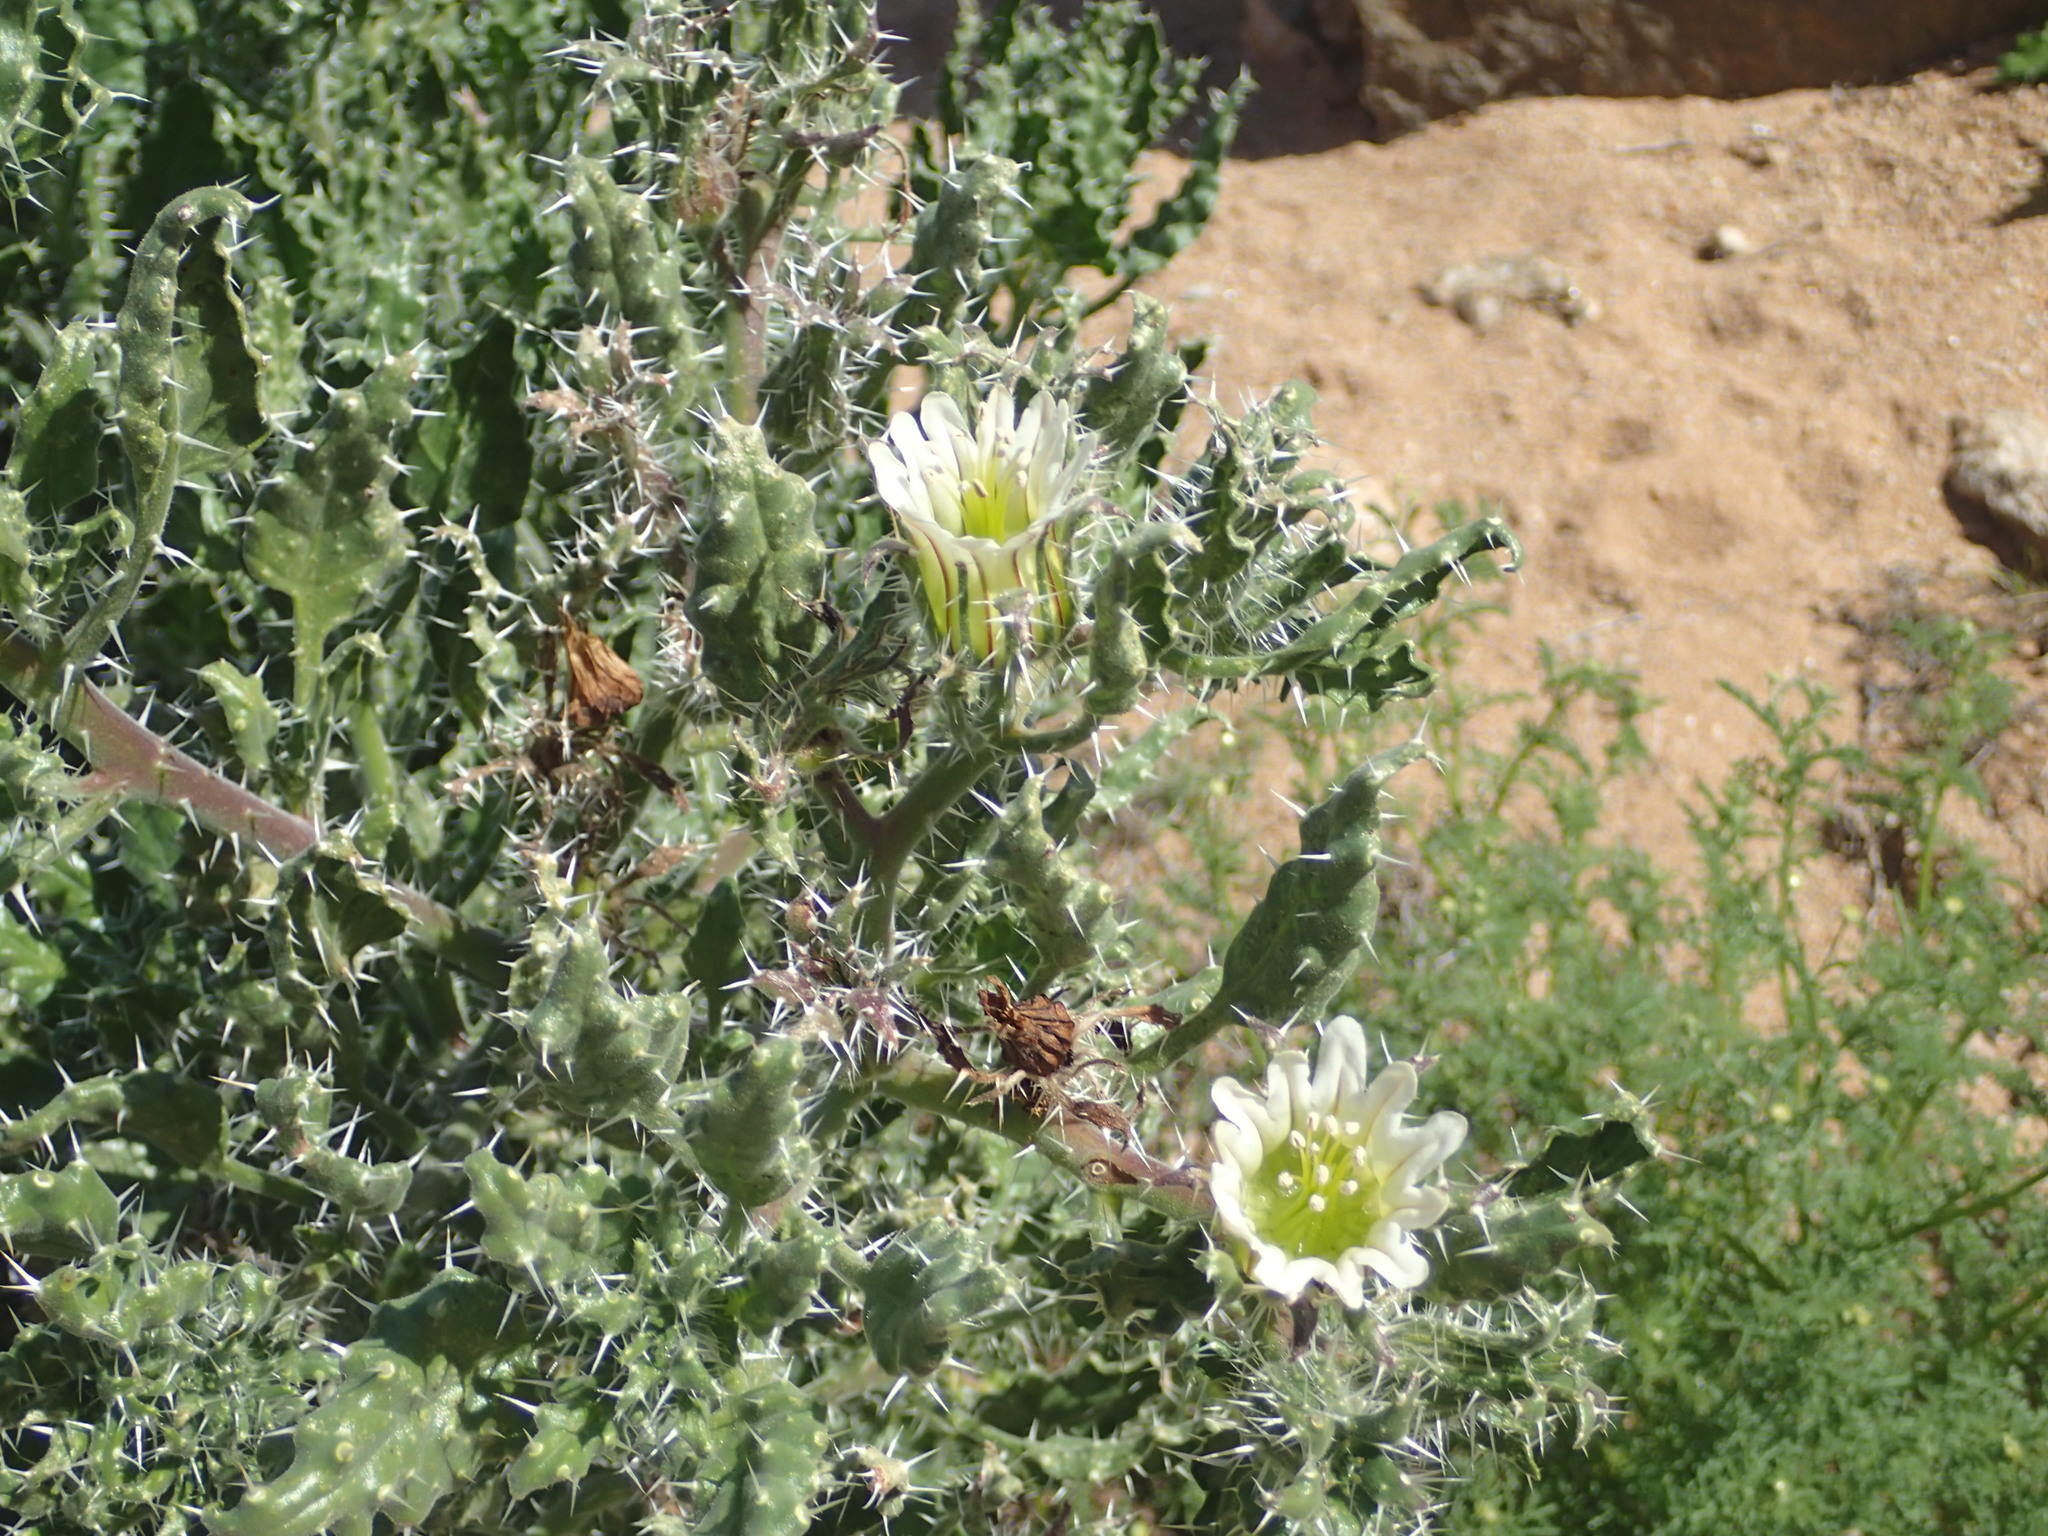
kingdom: Plantae
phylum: Tracheophyta
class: Magnoliopsida
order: Boraginales
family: Boraginaceae
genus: Codon
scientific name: Codon royenii
